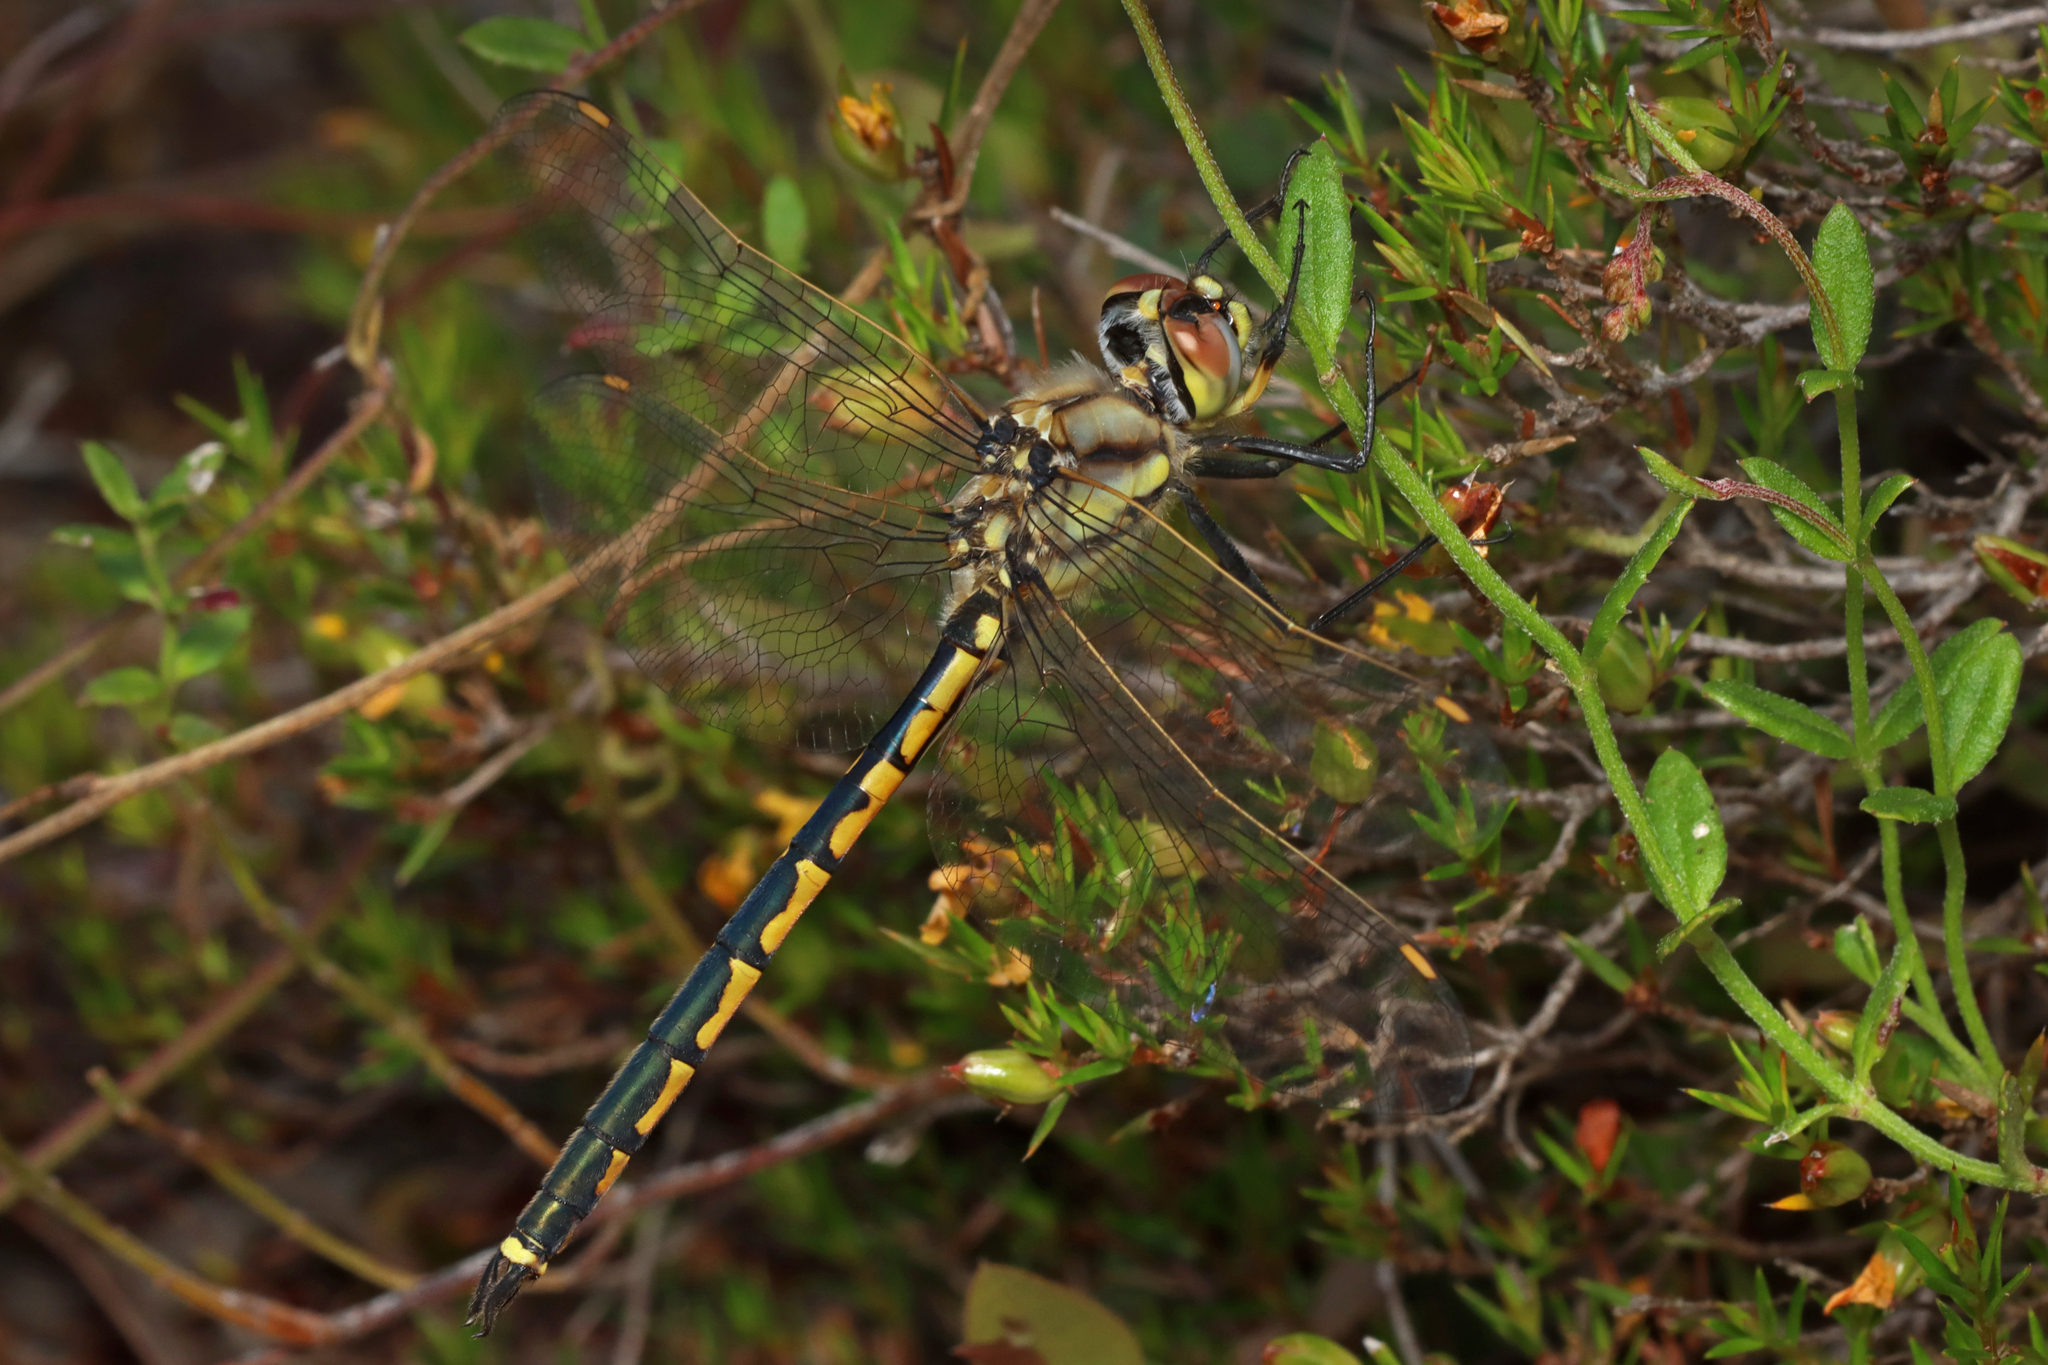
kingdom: Animalia
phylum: Arthropoda
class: Insecta
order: Odonata
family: Corduliidae
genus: Hemicordulia
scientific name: Hemicordulia tau
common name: Tau emerald
